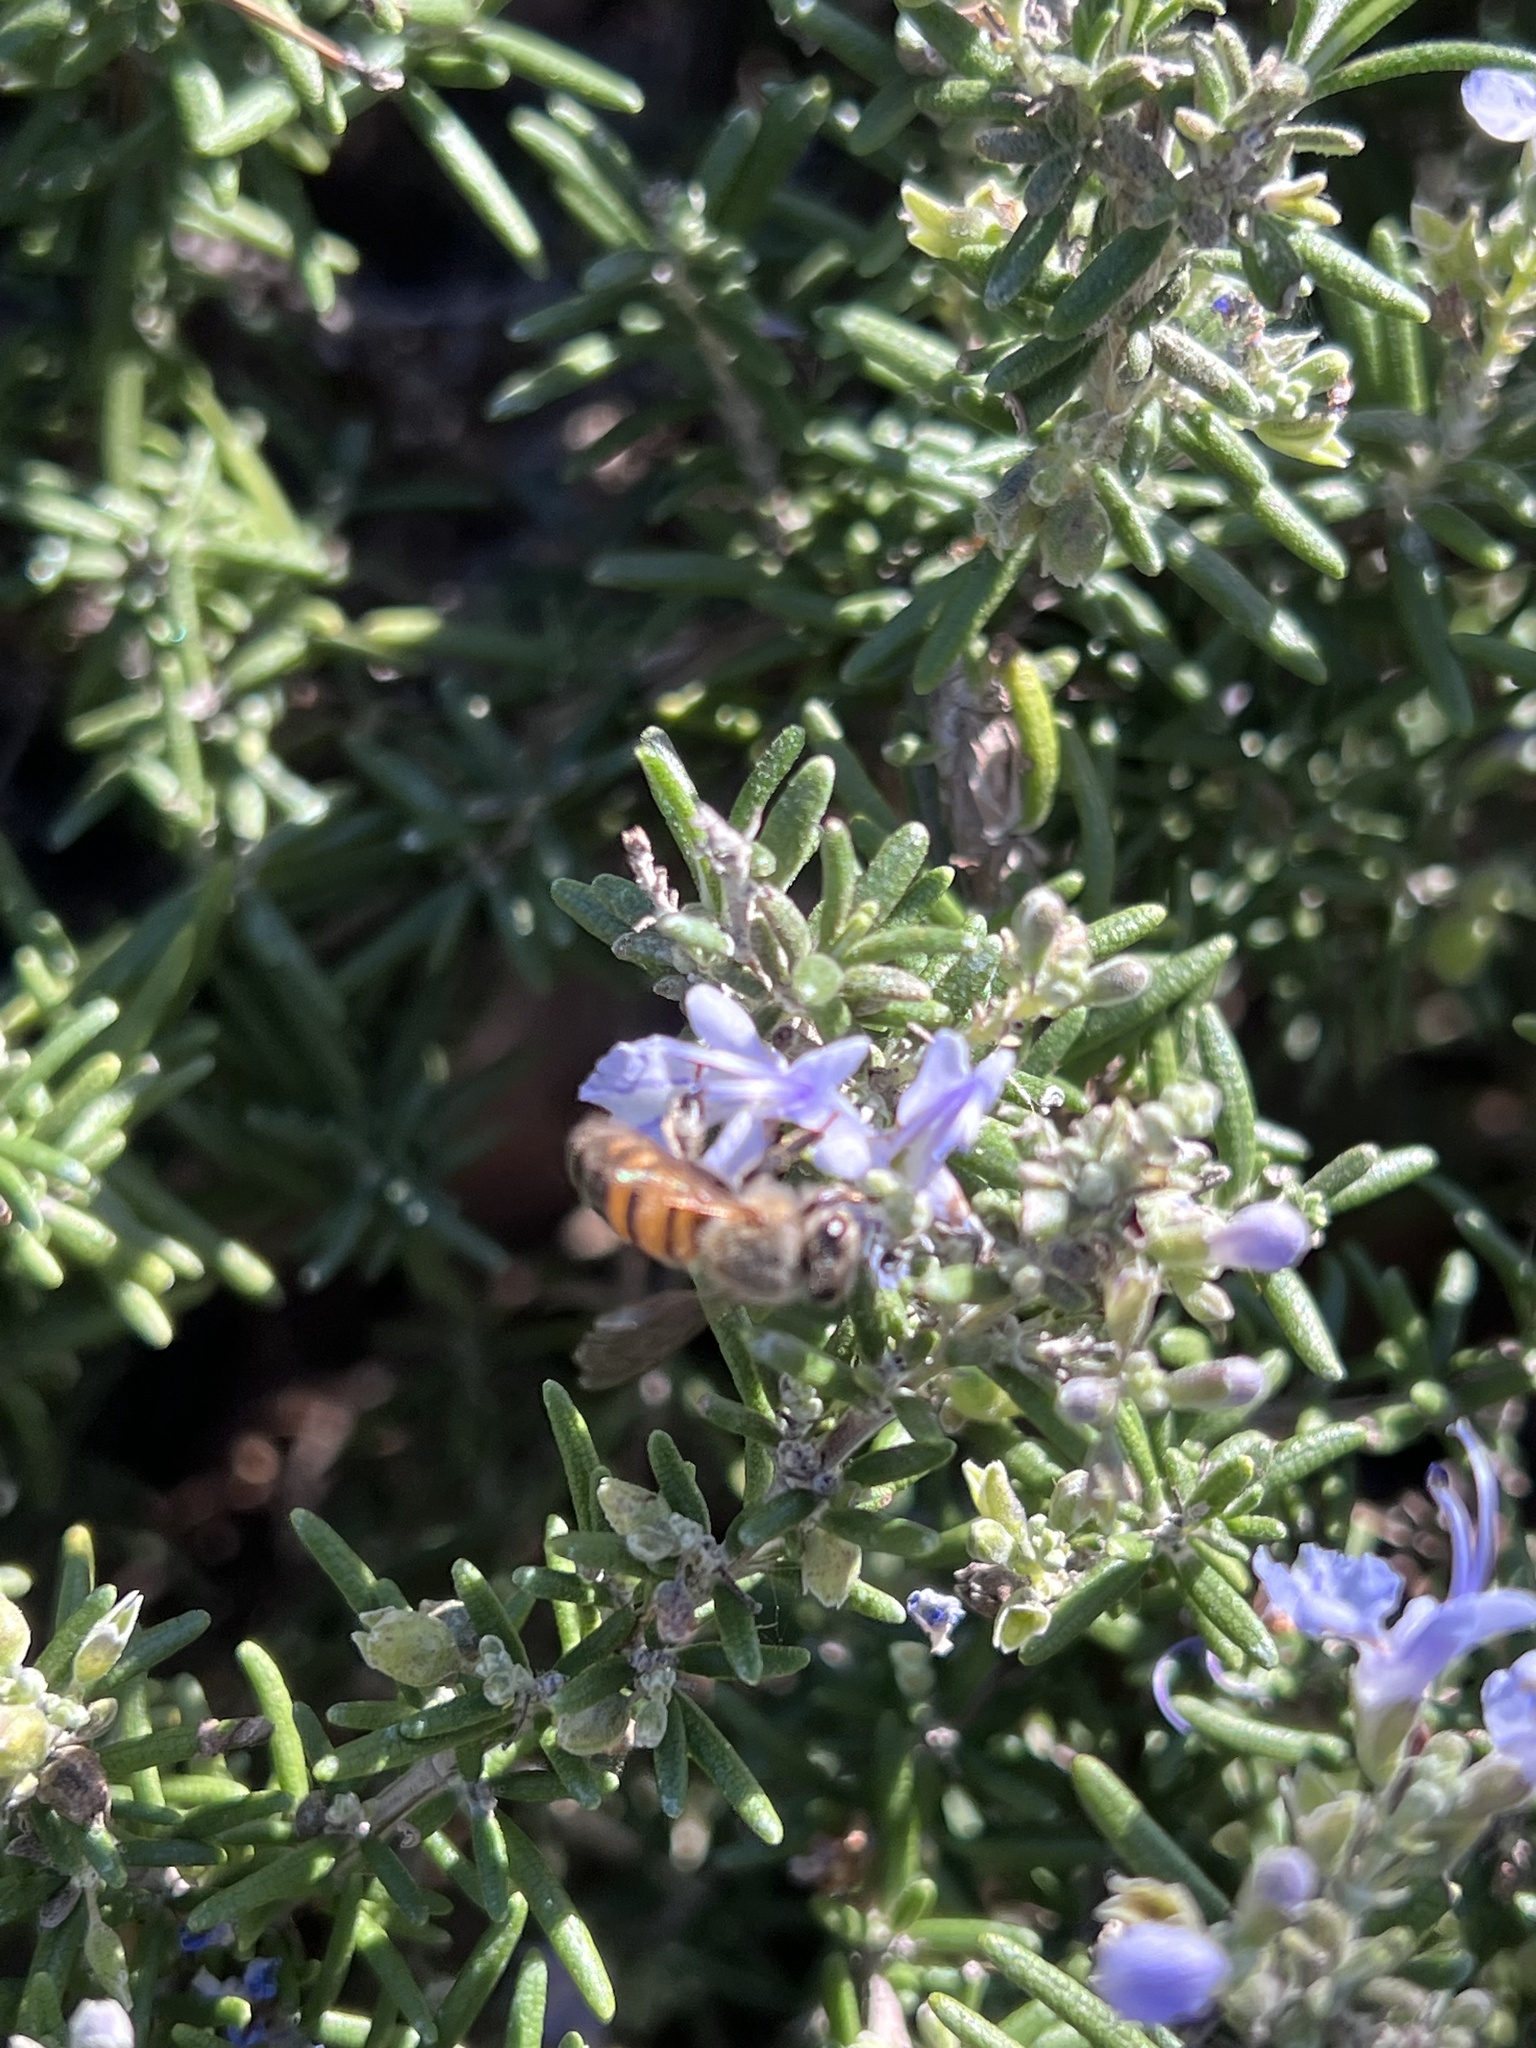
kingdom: Animalia
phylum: Arthropoda
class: Insecta
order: Hymenoptera
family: Apidae
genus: Apis
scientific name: Apis mellifera
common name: Honey bee
